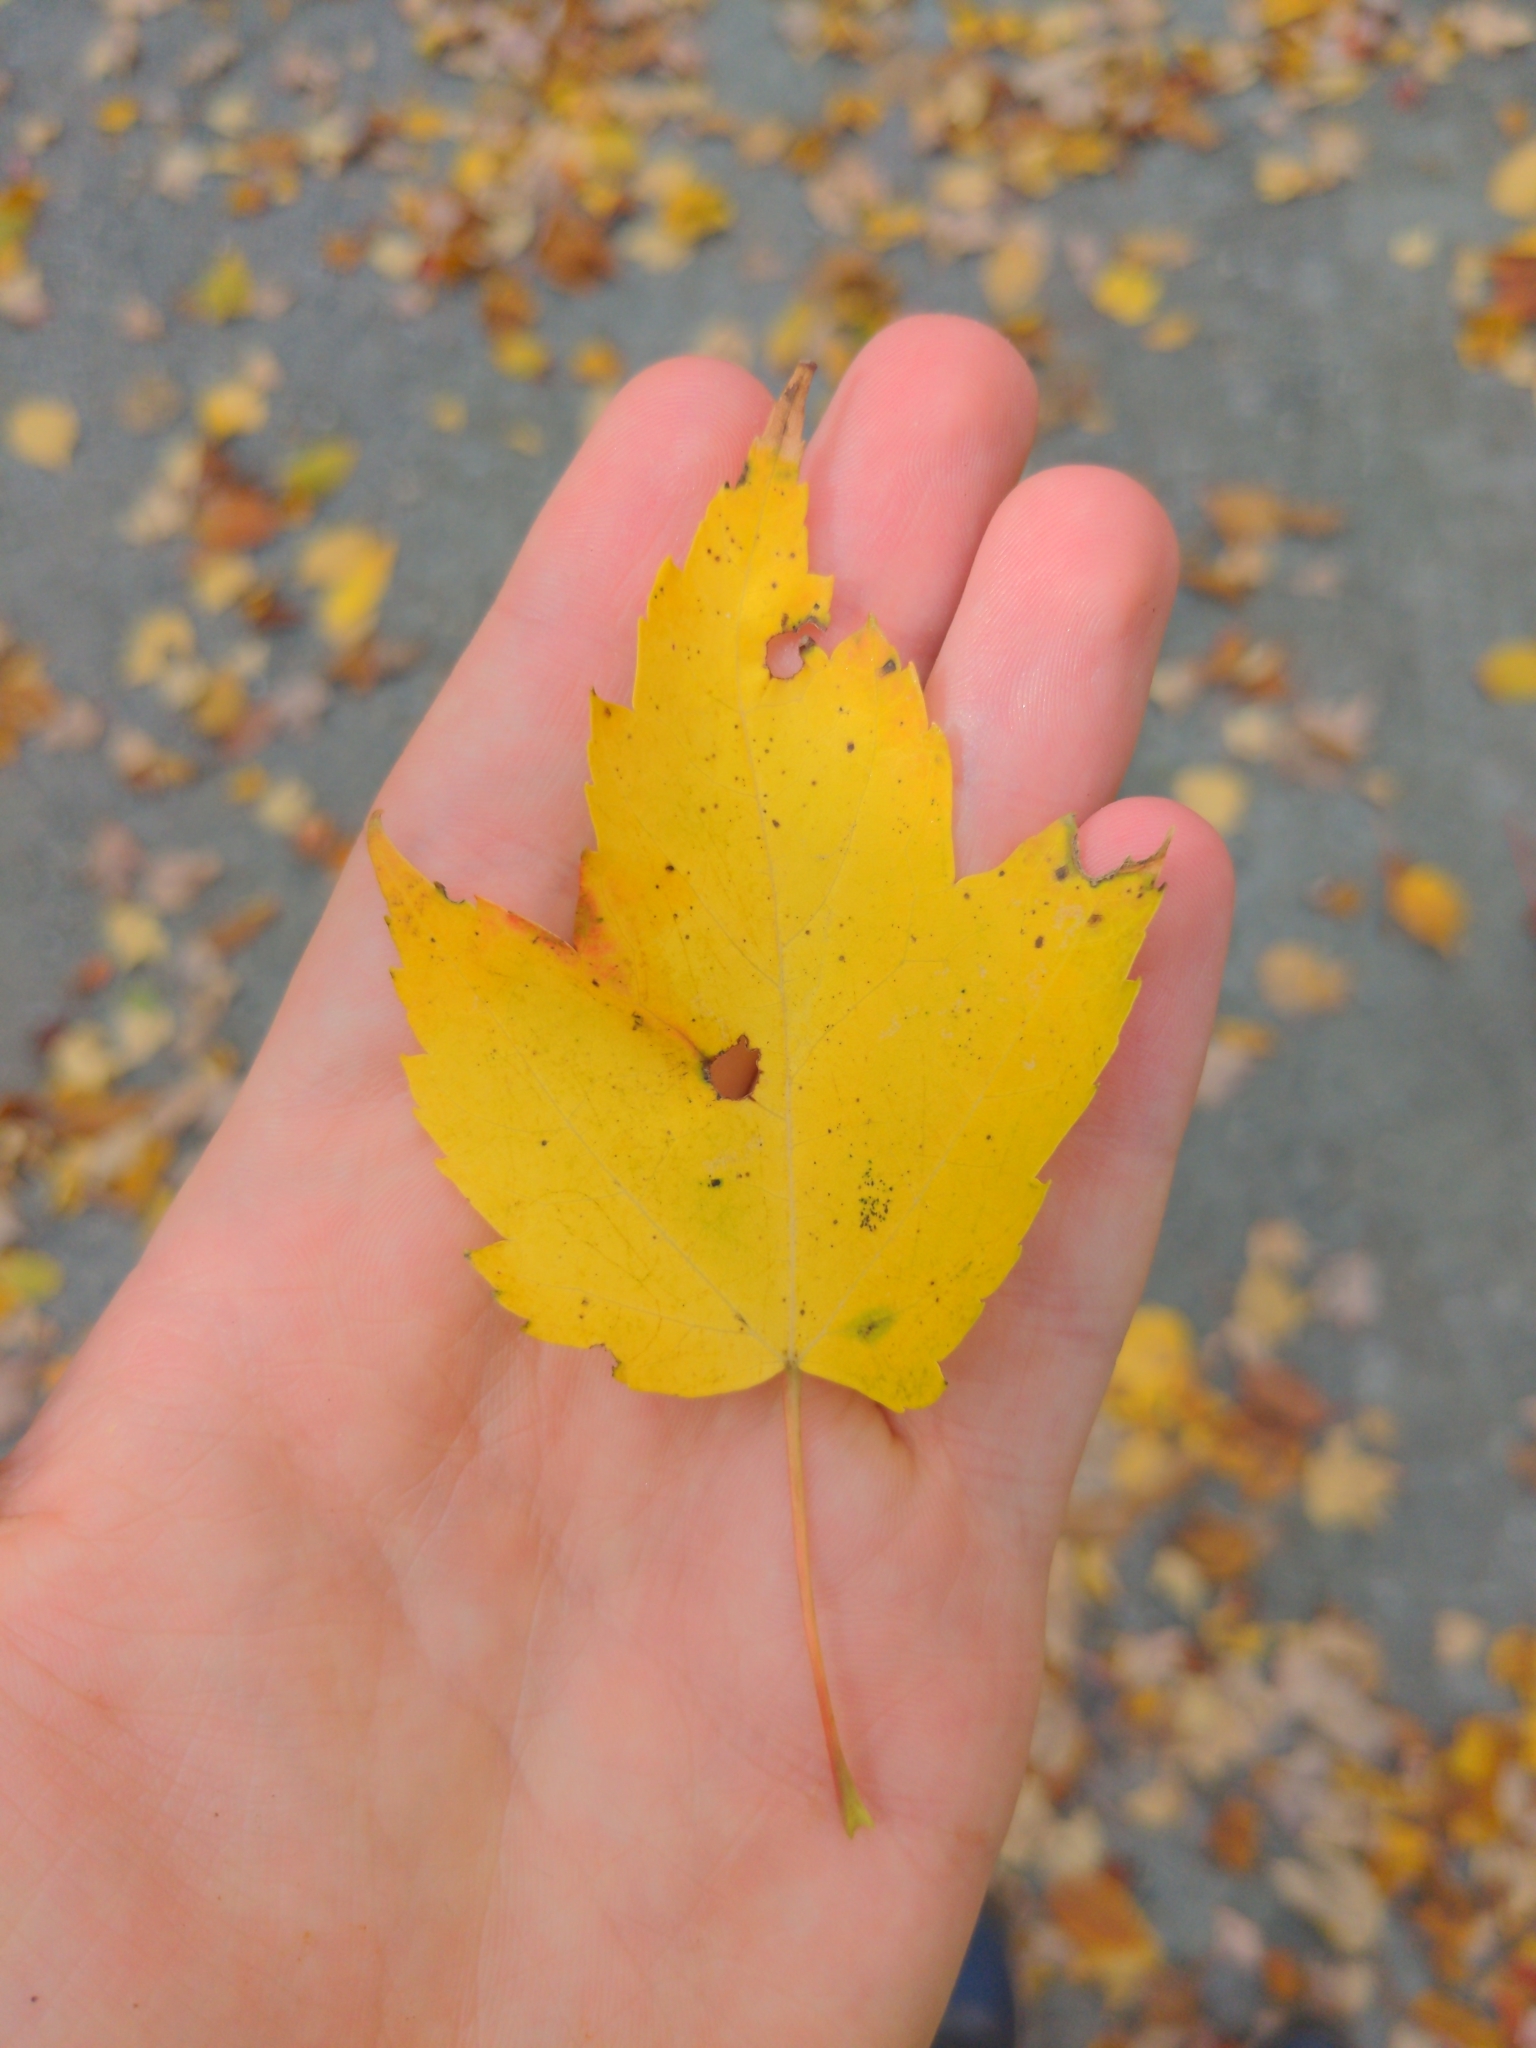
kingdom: Plantae
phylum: Tracheophyta
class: Magnoliopsida
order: Sapindales
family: Sapindaceae
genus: Acer
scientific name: Acer rubrum
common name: Red maple
